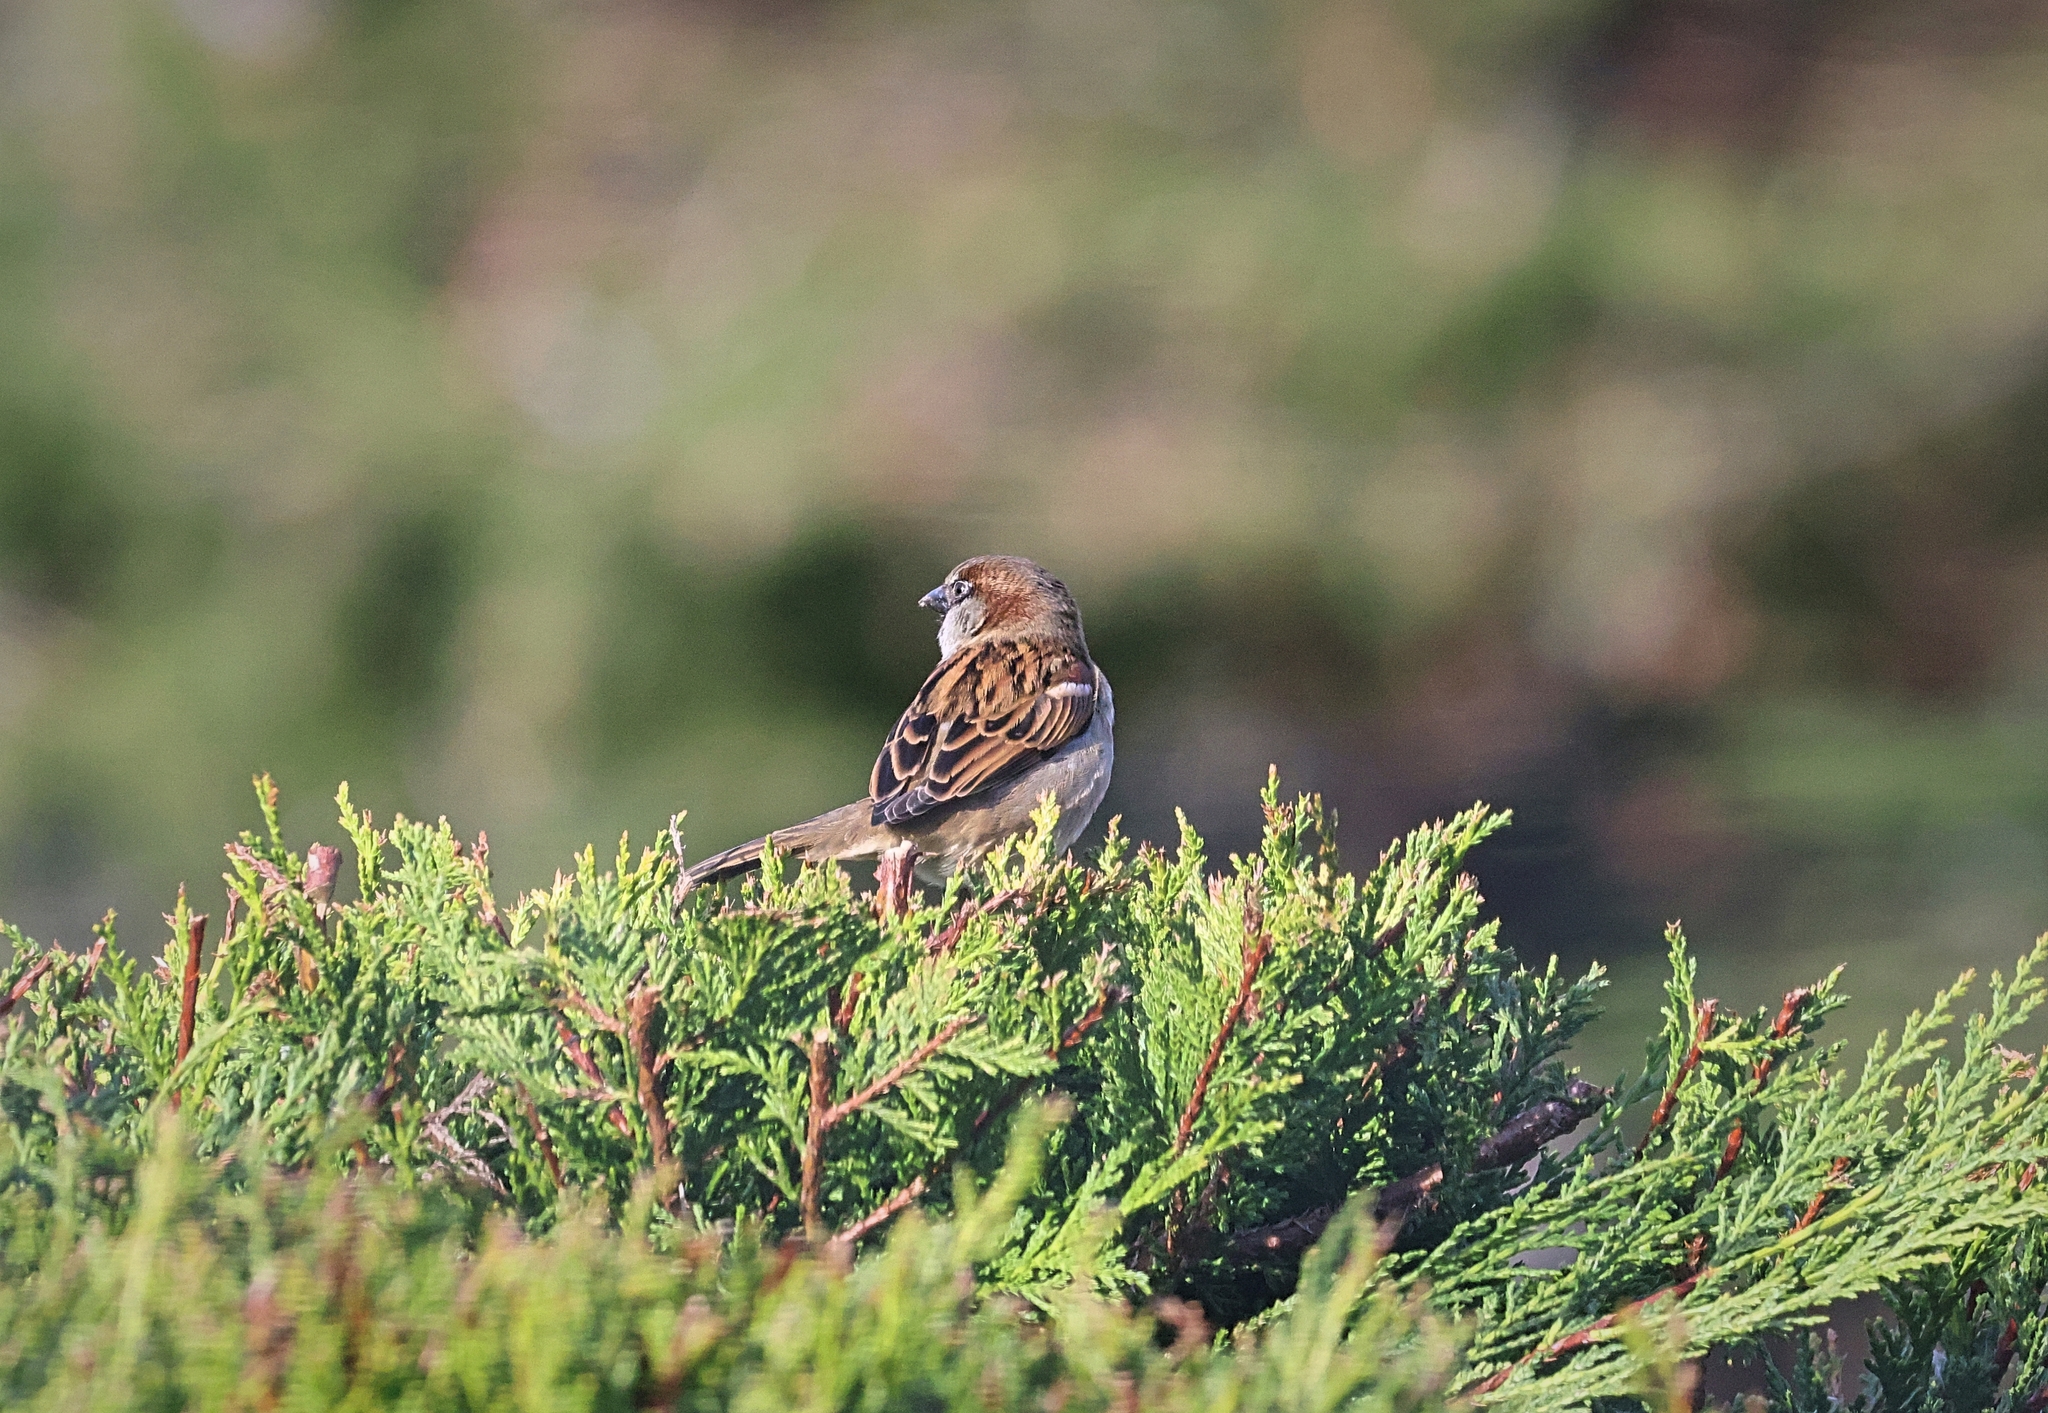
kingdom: Animalia
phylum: Chordata
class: Aves
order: Passeriformes
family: Passeridae
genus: Passer
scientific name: Passer domesticus
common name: House sparrow
